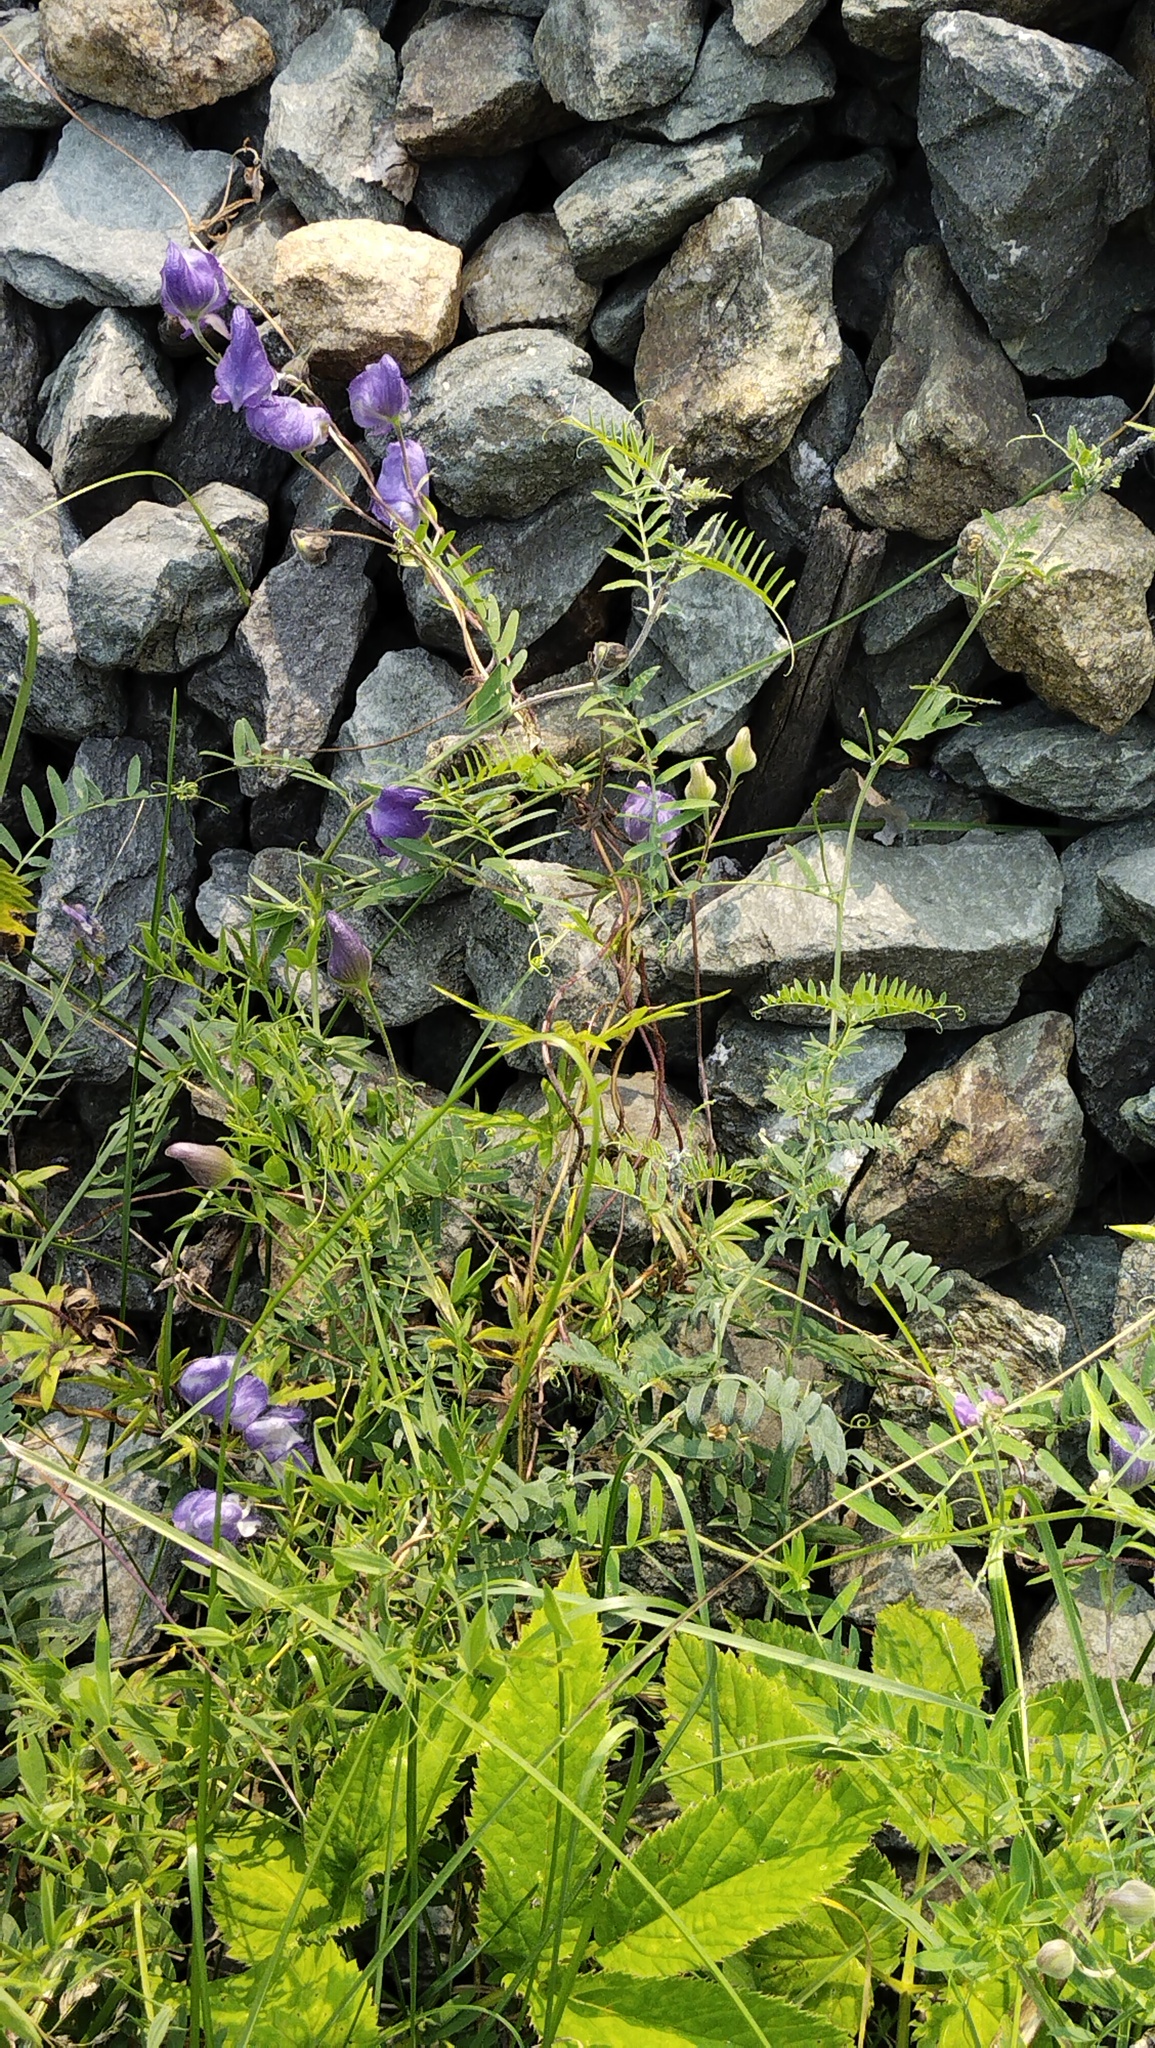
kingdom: Plantae
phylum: Tracheophyta
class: Magnoliopsida
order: Ranunculales
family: Ranunculaceae
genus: Aconitum
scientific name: Aconitum volubile
